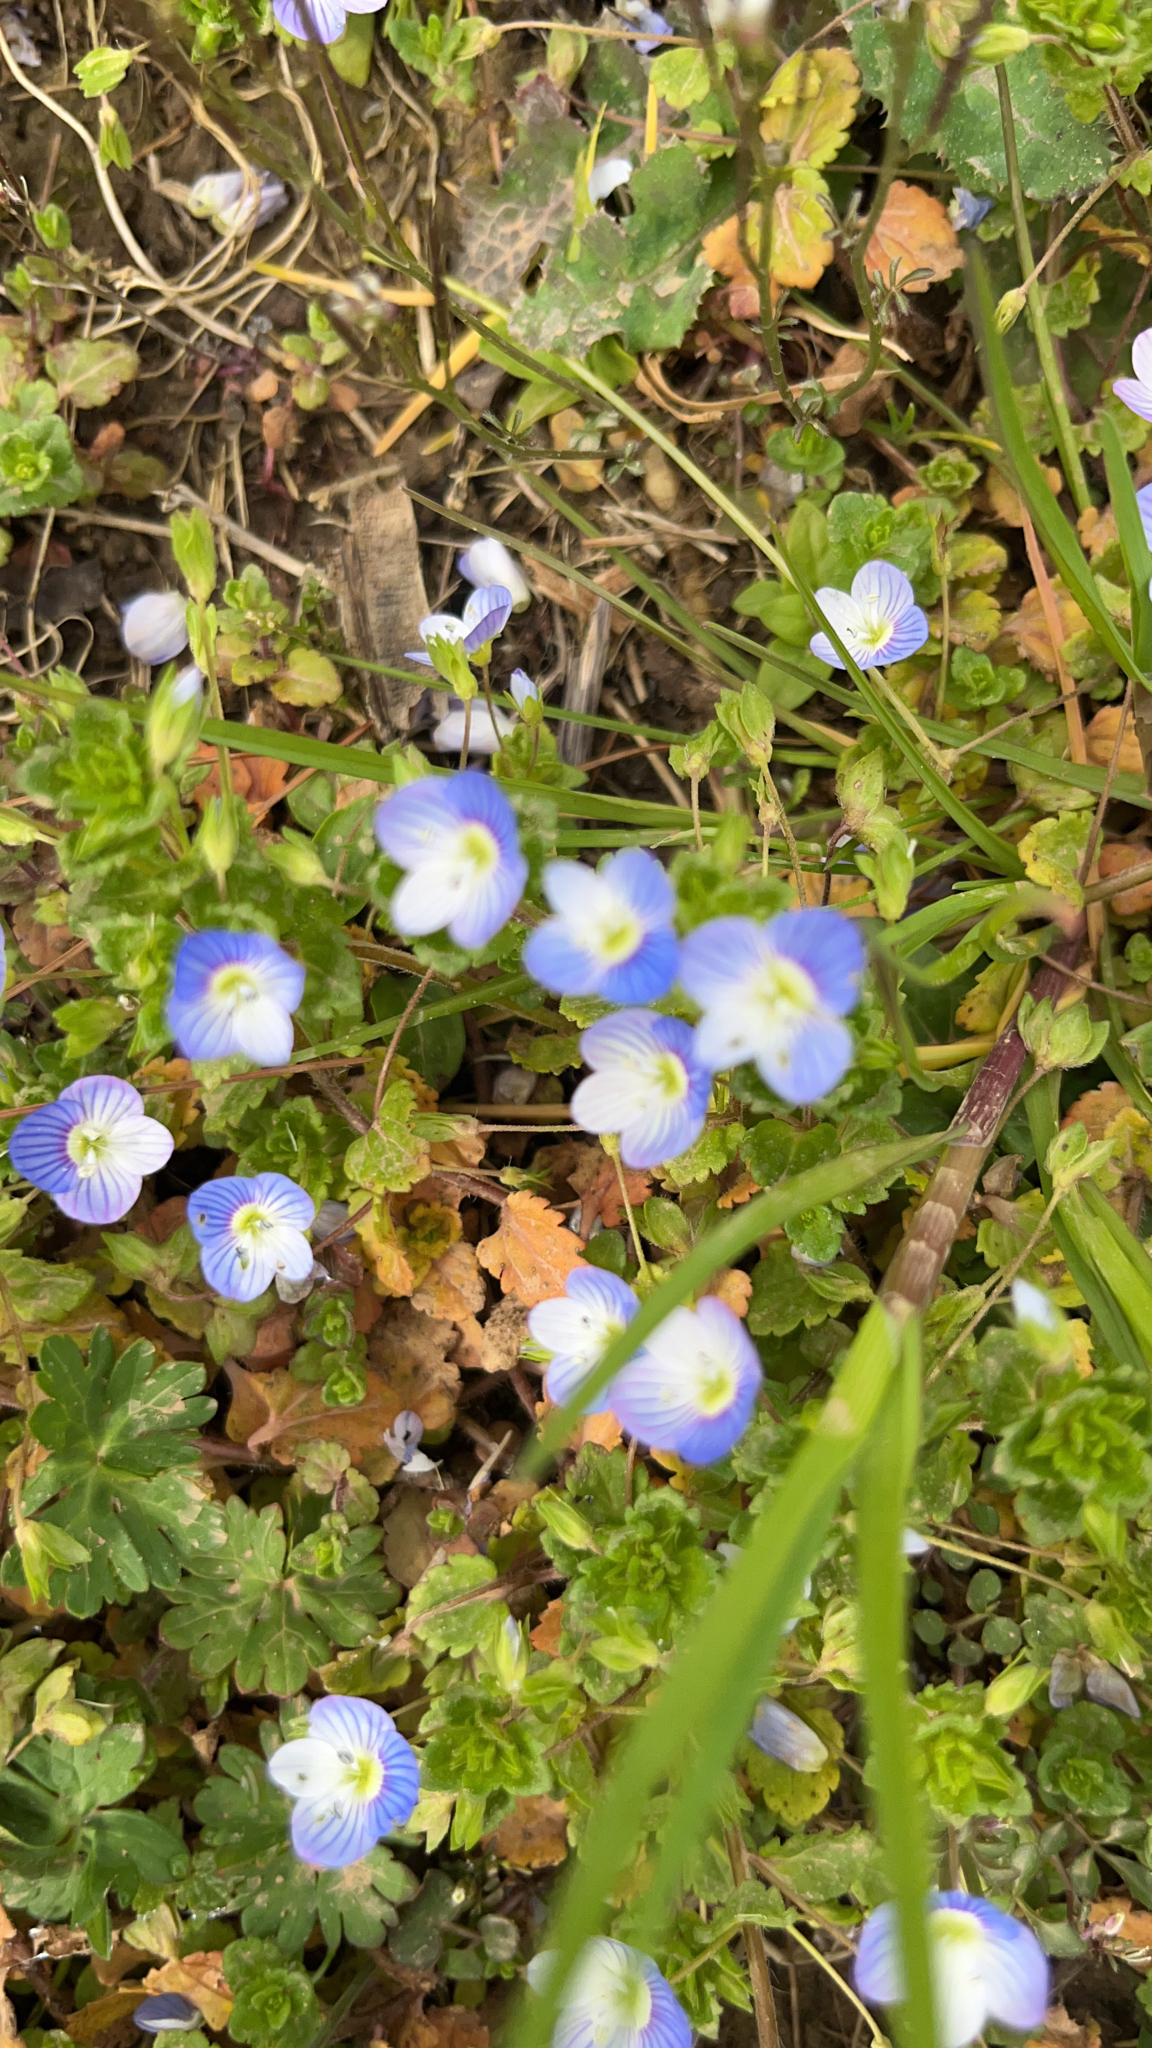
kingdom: Plantae
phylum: Tracheophyta
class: Magnoliopsida
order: Lamiales
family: Plantaginaceae
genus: Veronica
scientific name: Veronica persica
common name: Common field-speedwell
